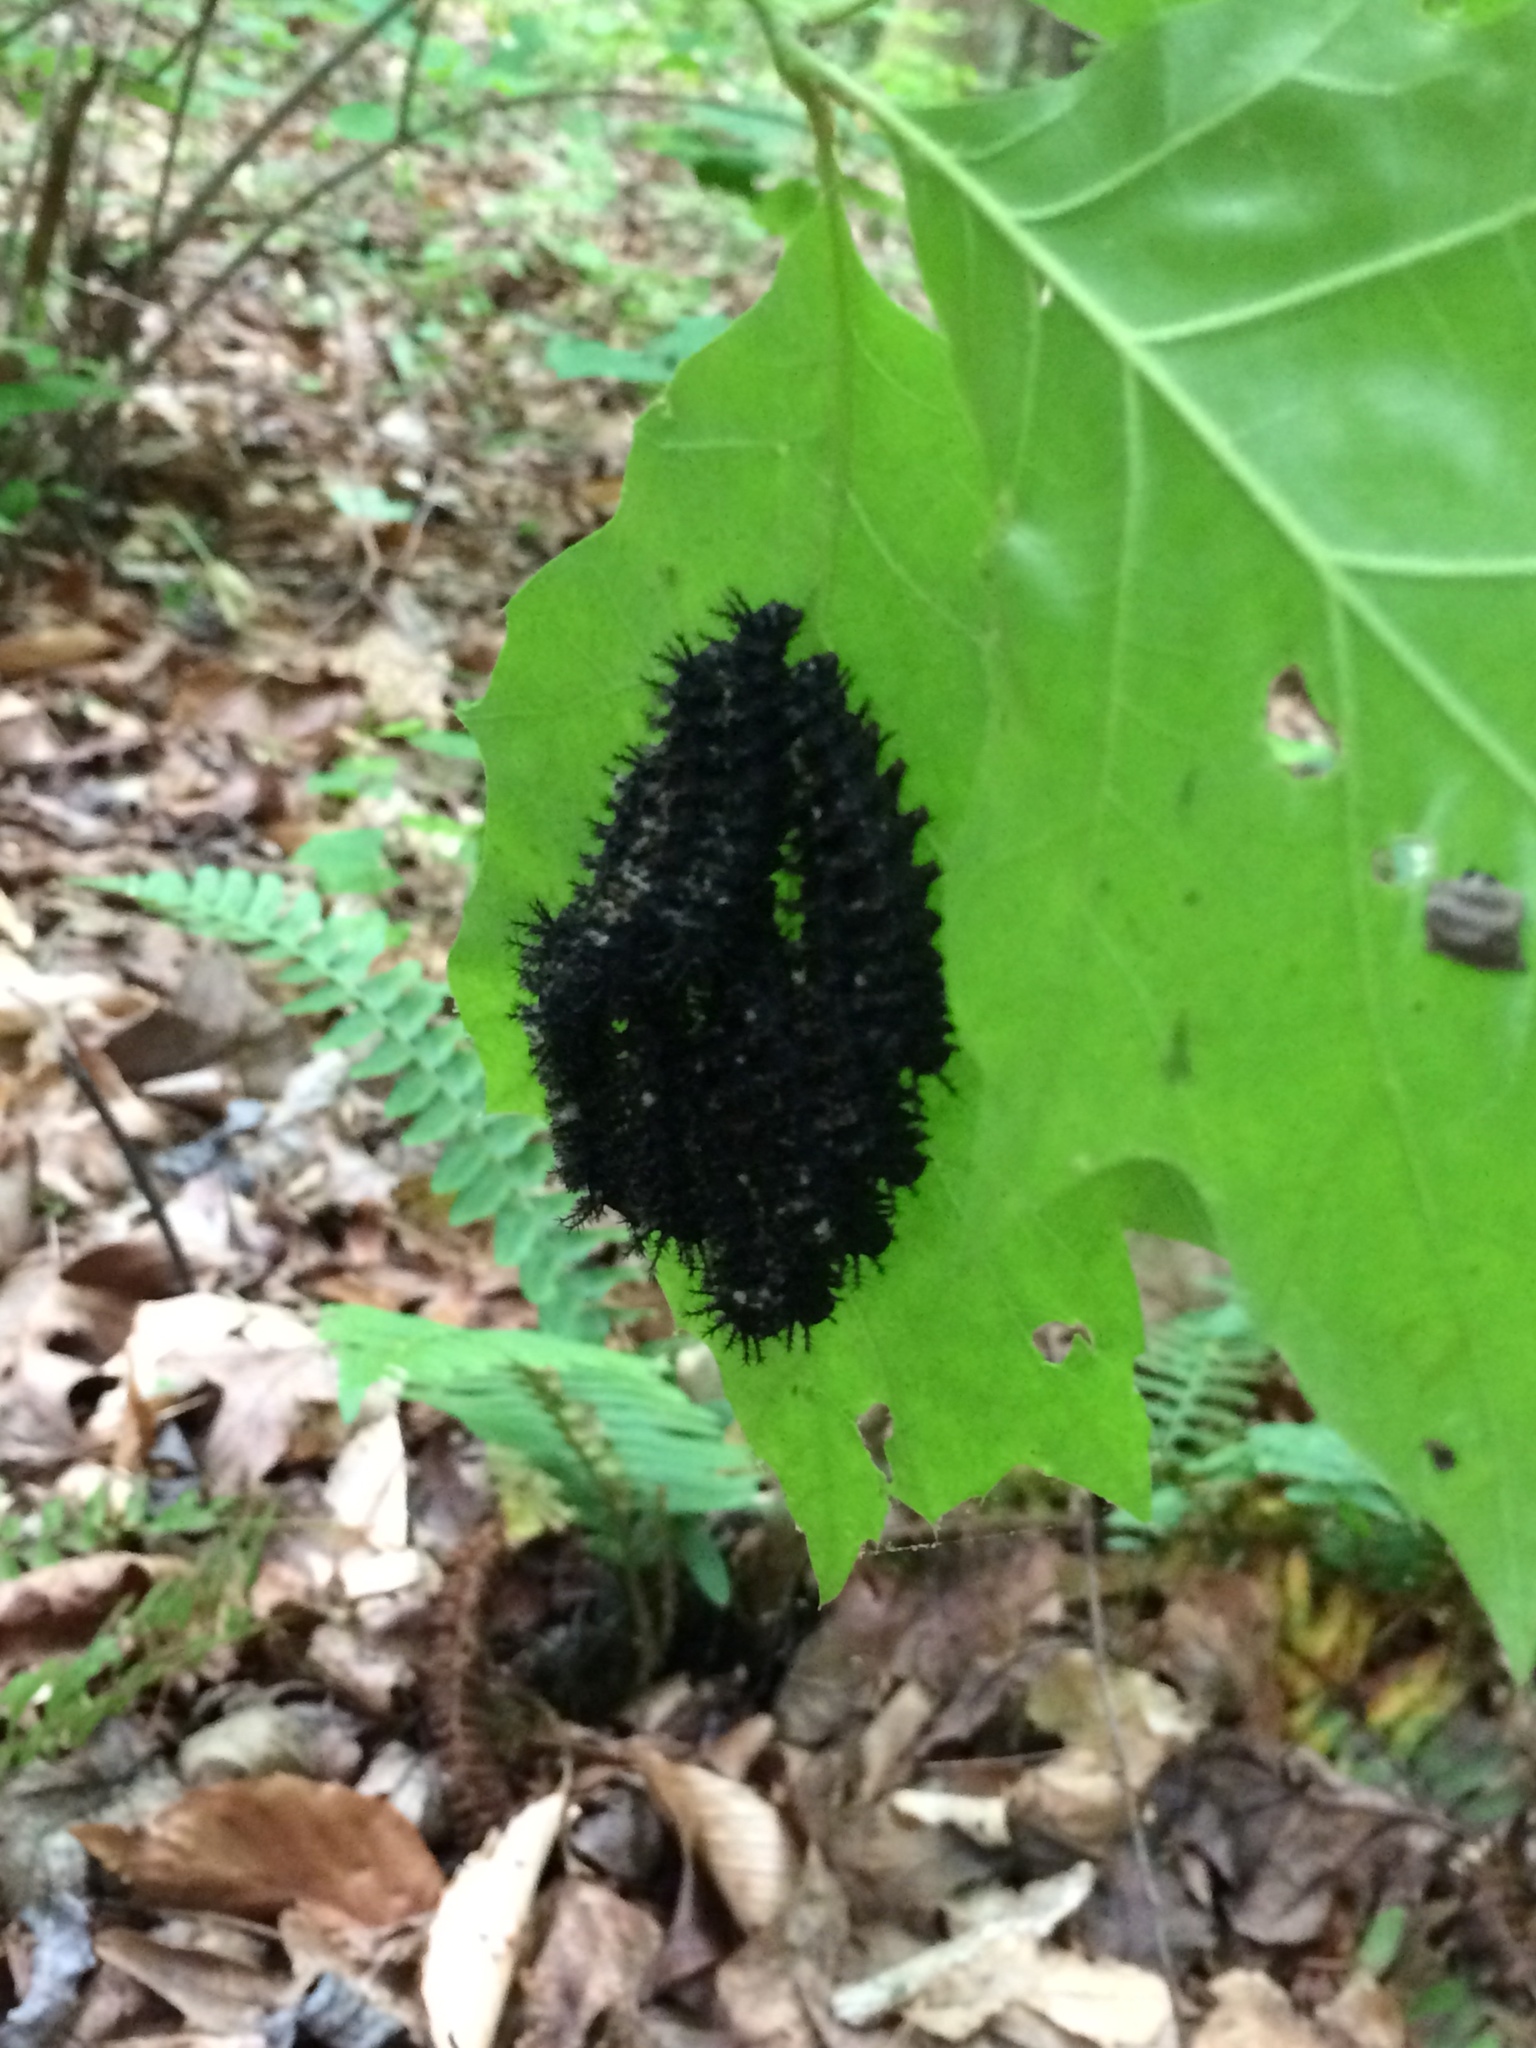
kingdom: Animalia
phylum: Arthropoda
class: Insecta
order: Lepidoptera
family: Saturniidae
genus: Hemileuca
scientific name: Hemileuca maia
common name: Eastern buckmoth
